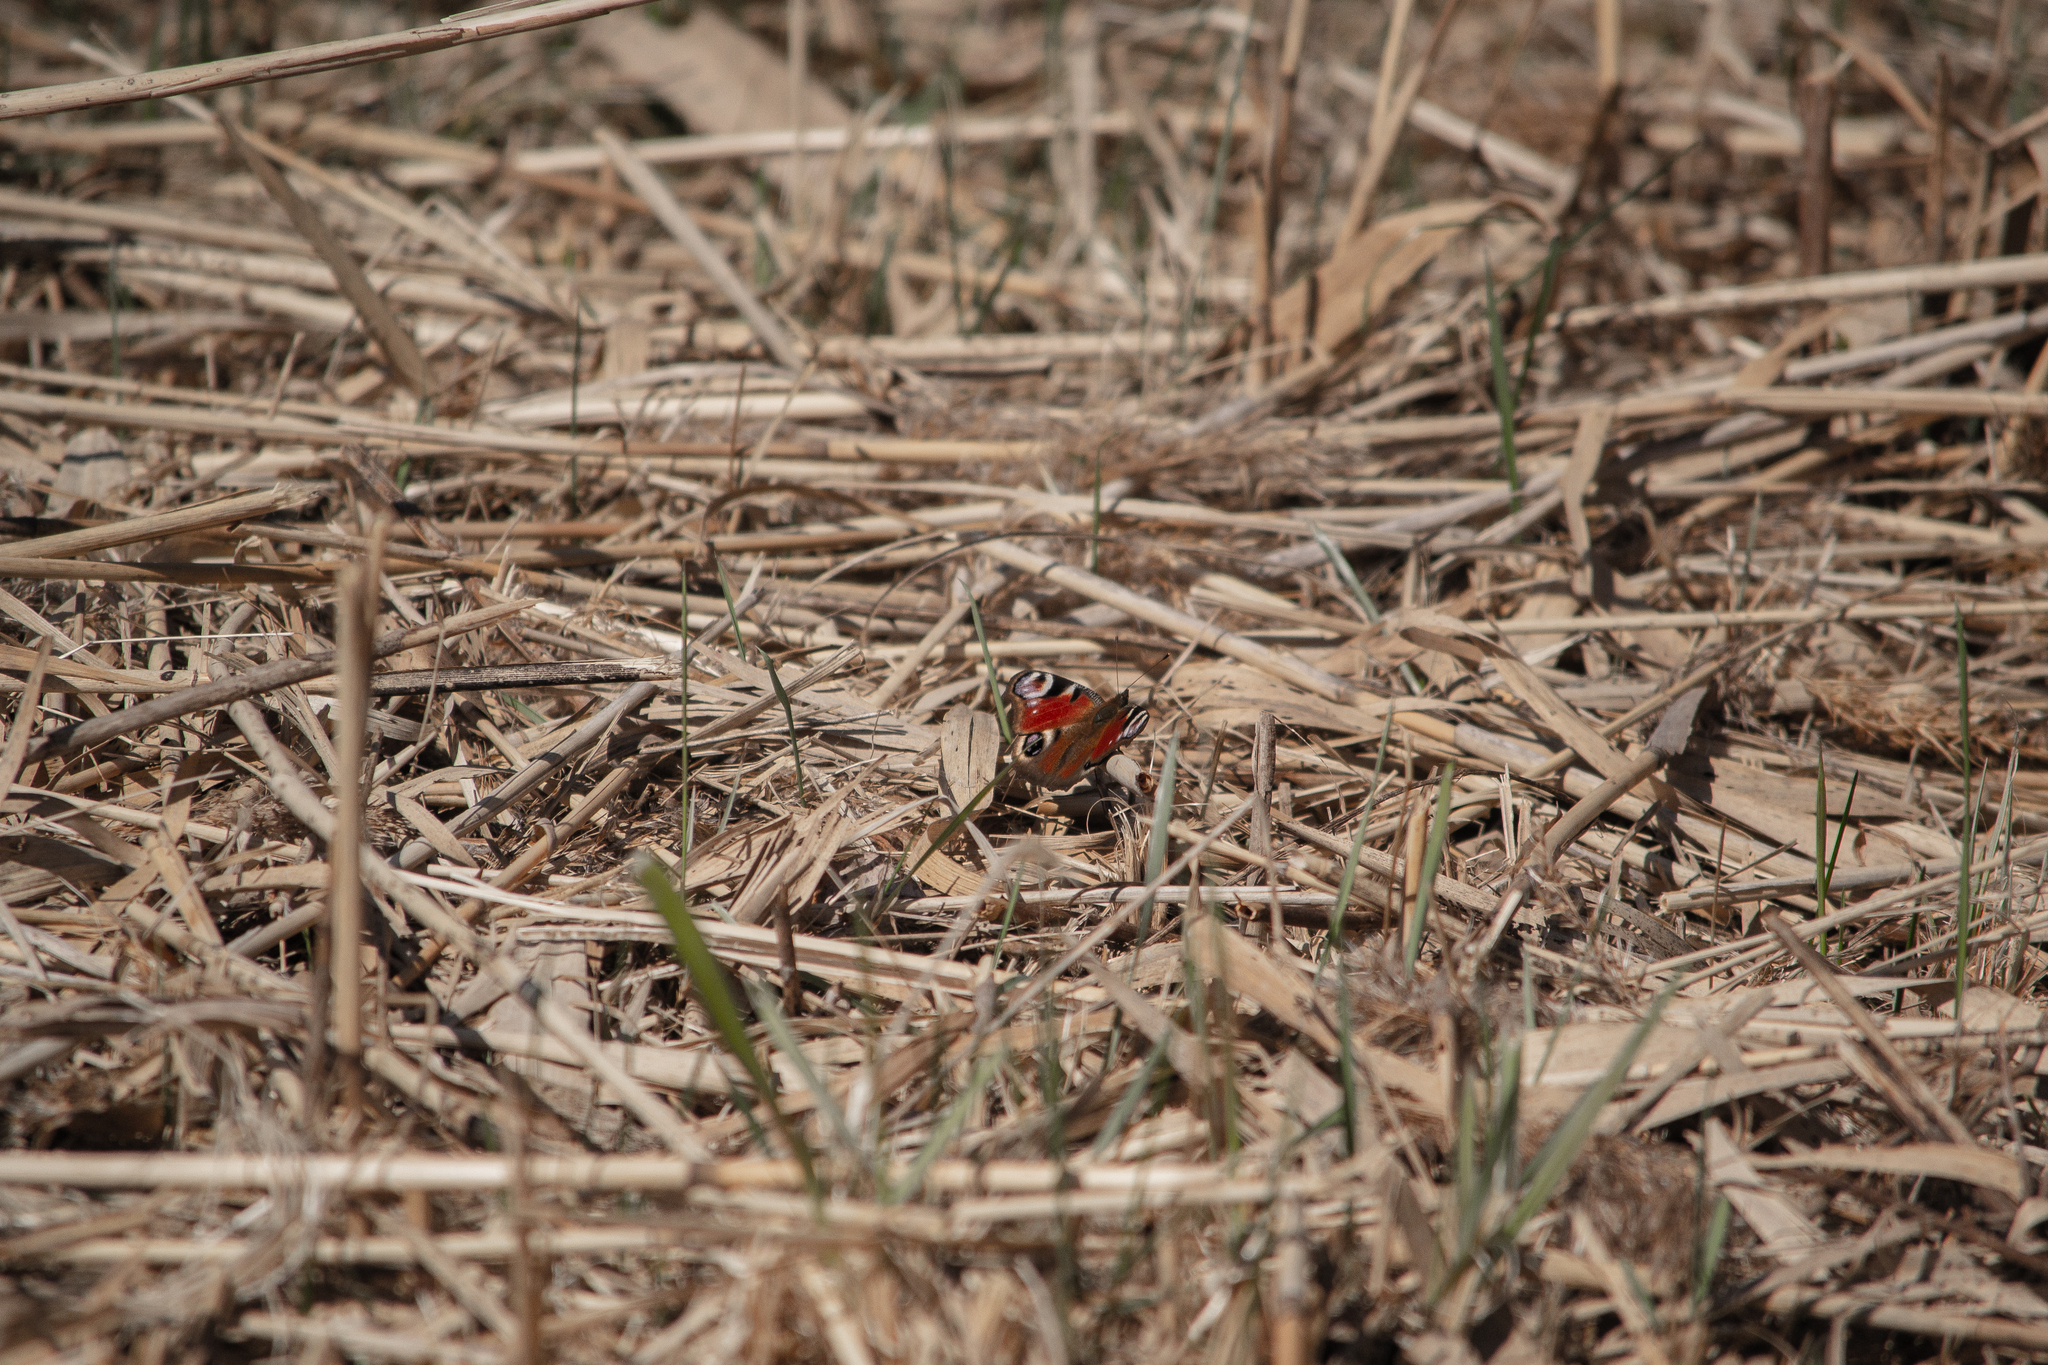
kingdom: Animalia
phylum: Arthropoda
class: Insecta
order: Lepidoptera
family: Nymphalidae
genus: Aglais
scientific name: Aglais io
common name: Peacock
